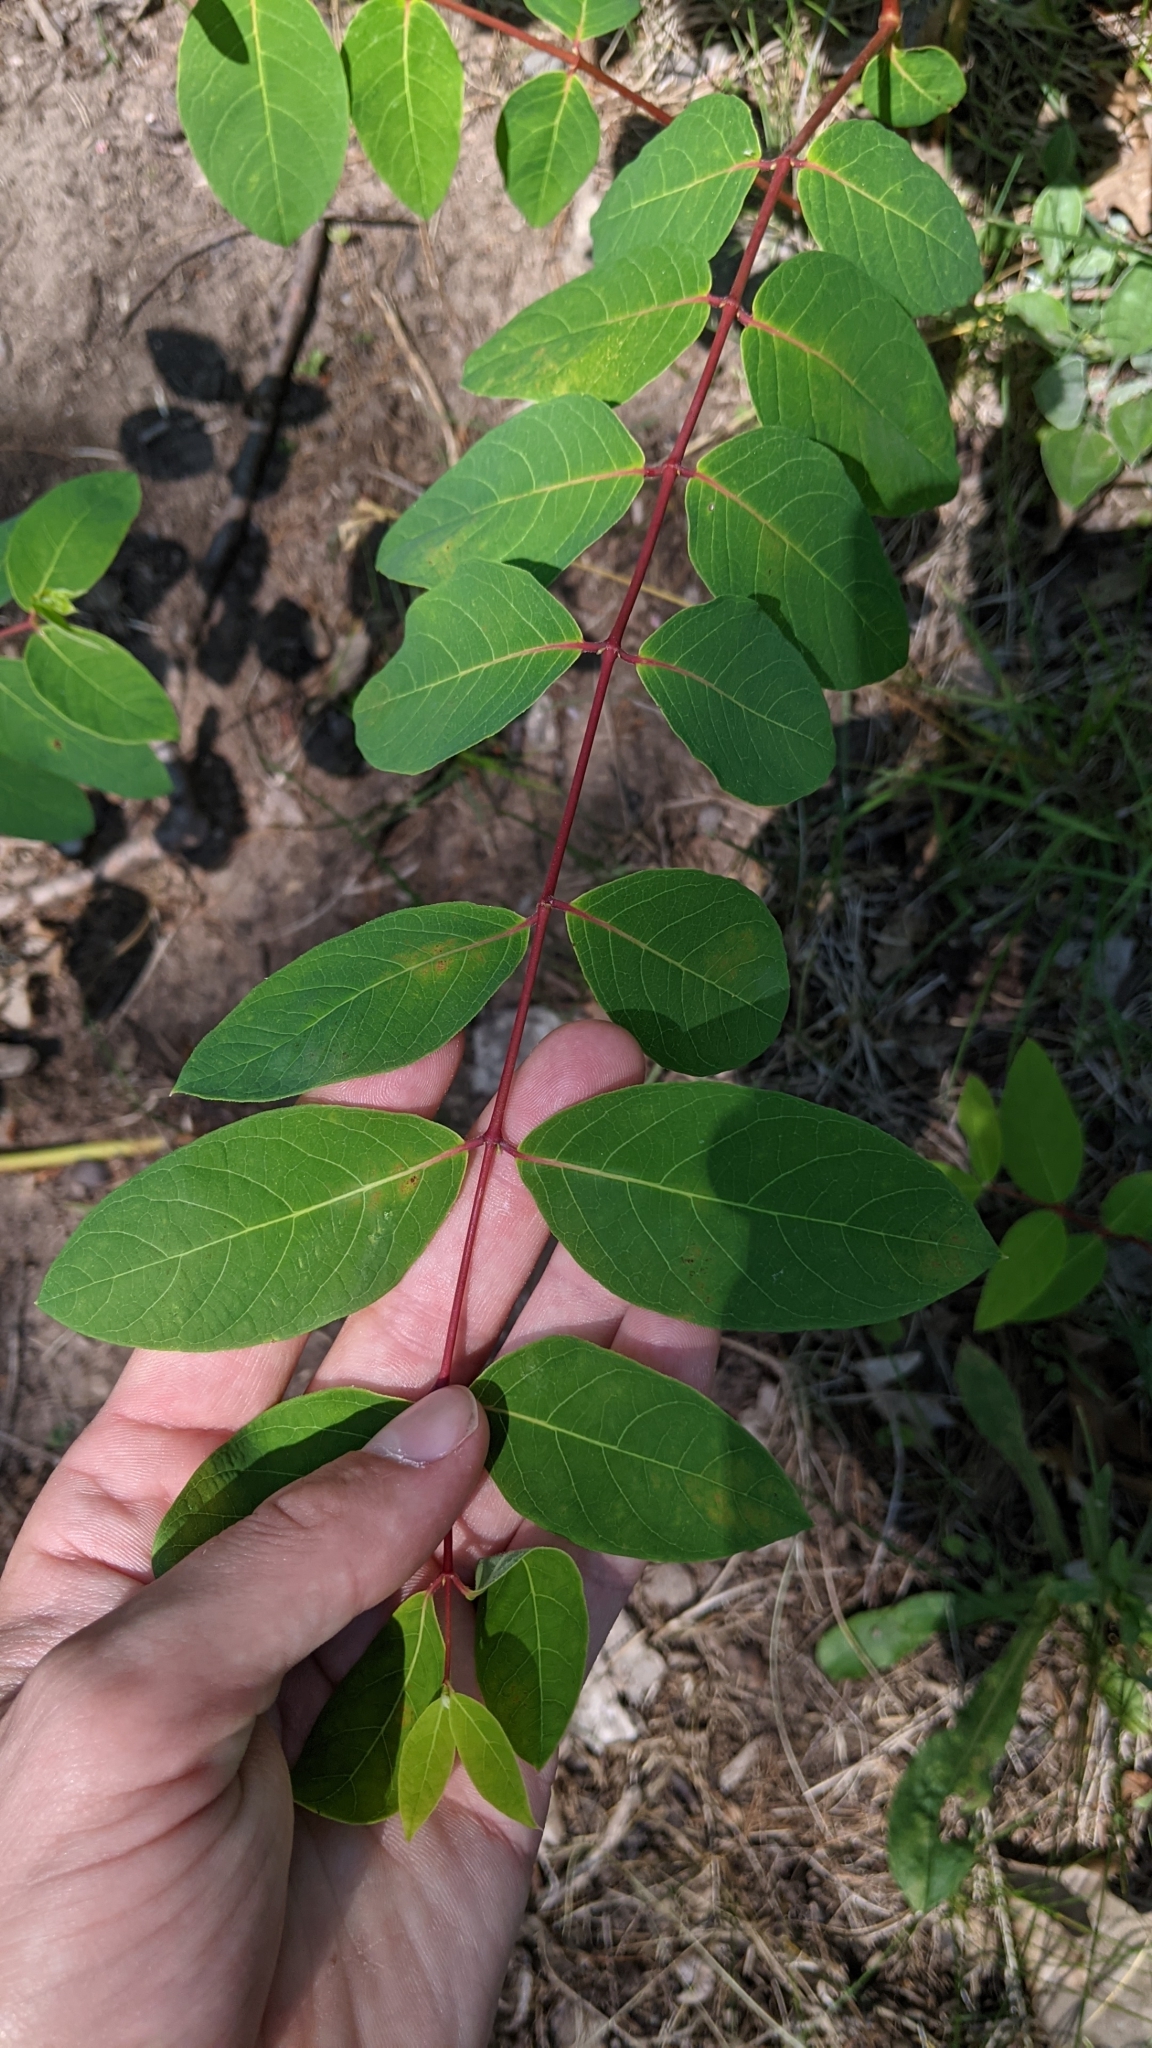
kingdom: Plantae
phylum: Tracheophyta
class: Magnoliopsida
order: Gentianales
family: Apocynaceae
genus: Apocynum
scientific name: Apocynum androsaemifolium
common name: Spreading dogbane
